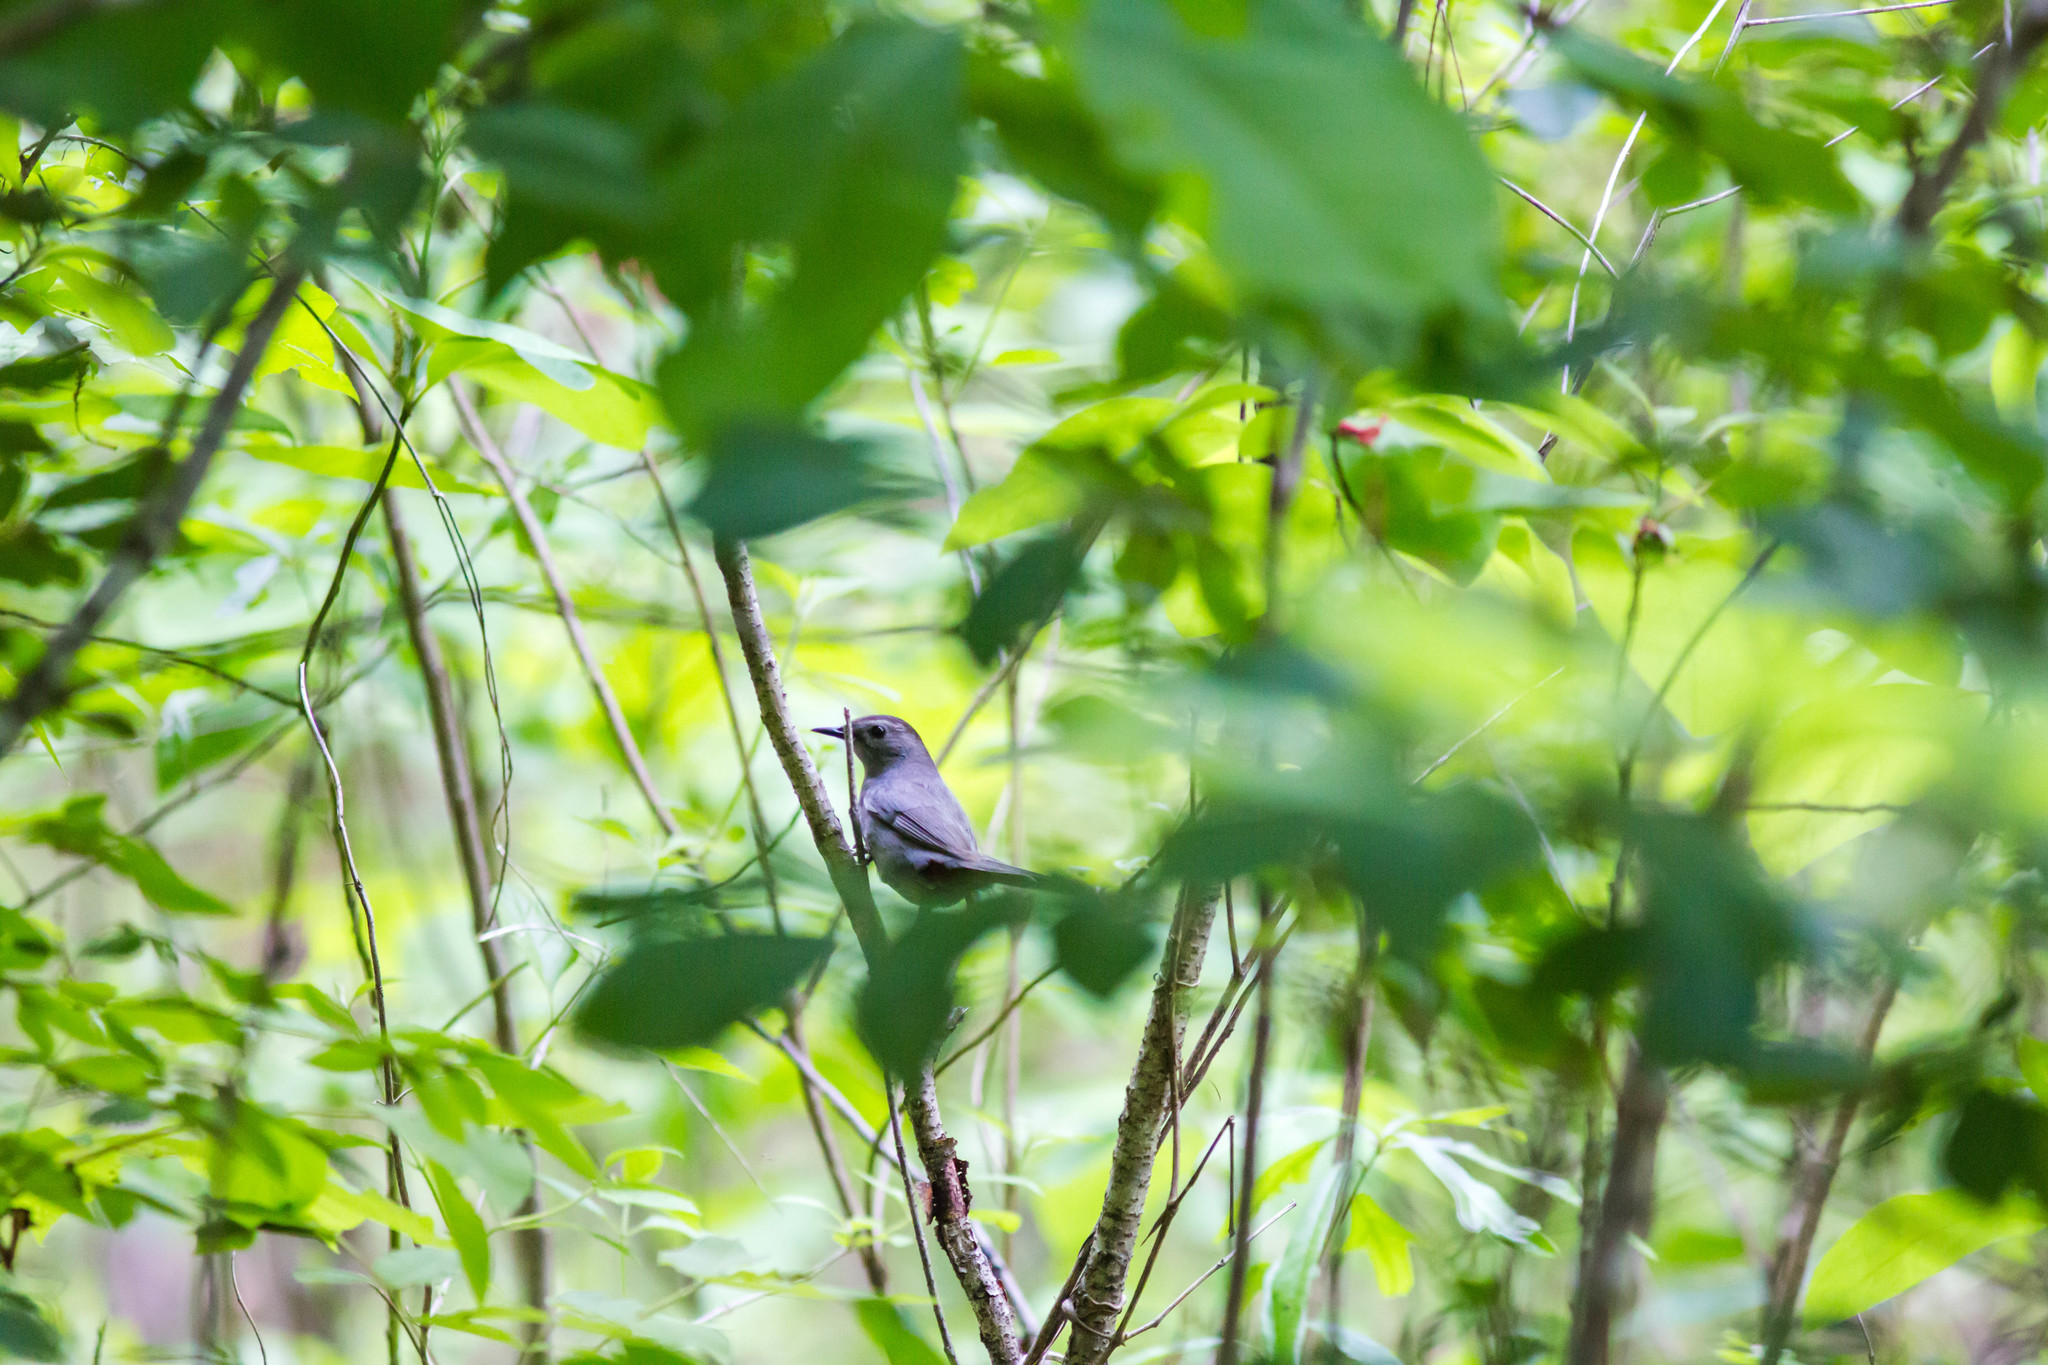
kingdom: Animalia
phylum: Chordata
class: Aves
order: Passeriformes
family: Mimidae
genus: Dumetella
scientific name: Dumetella carolinensis
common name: Gray catbird
